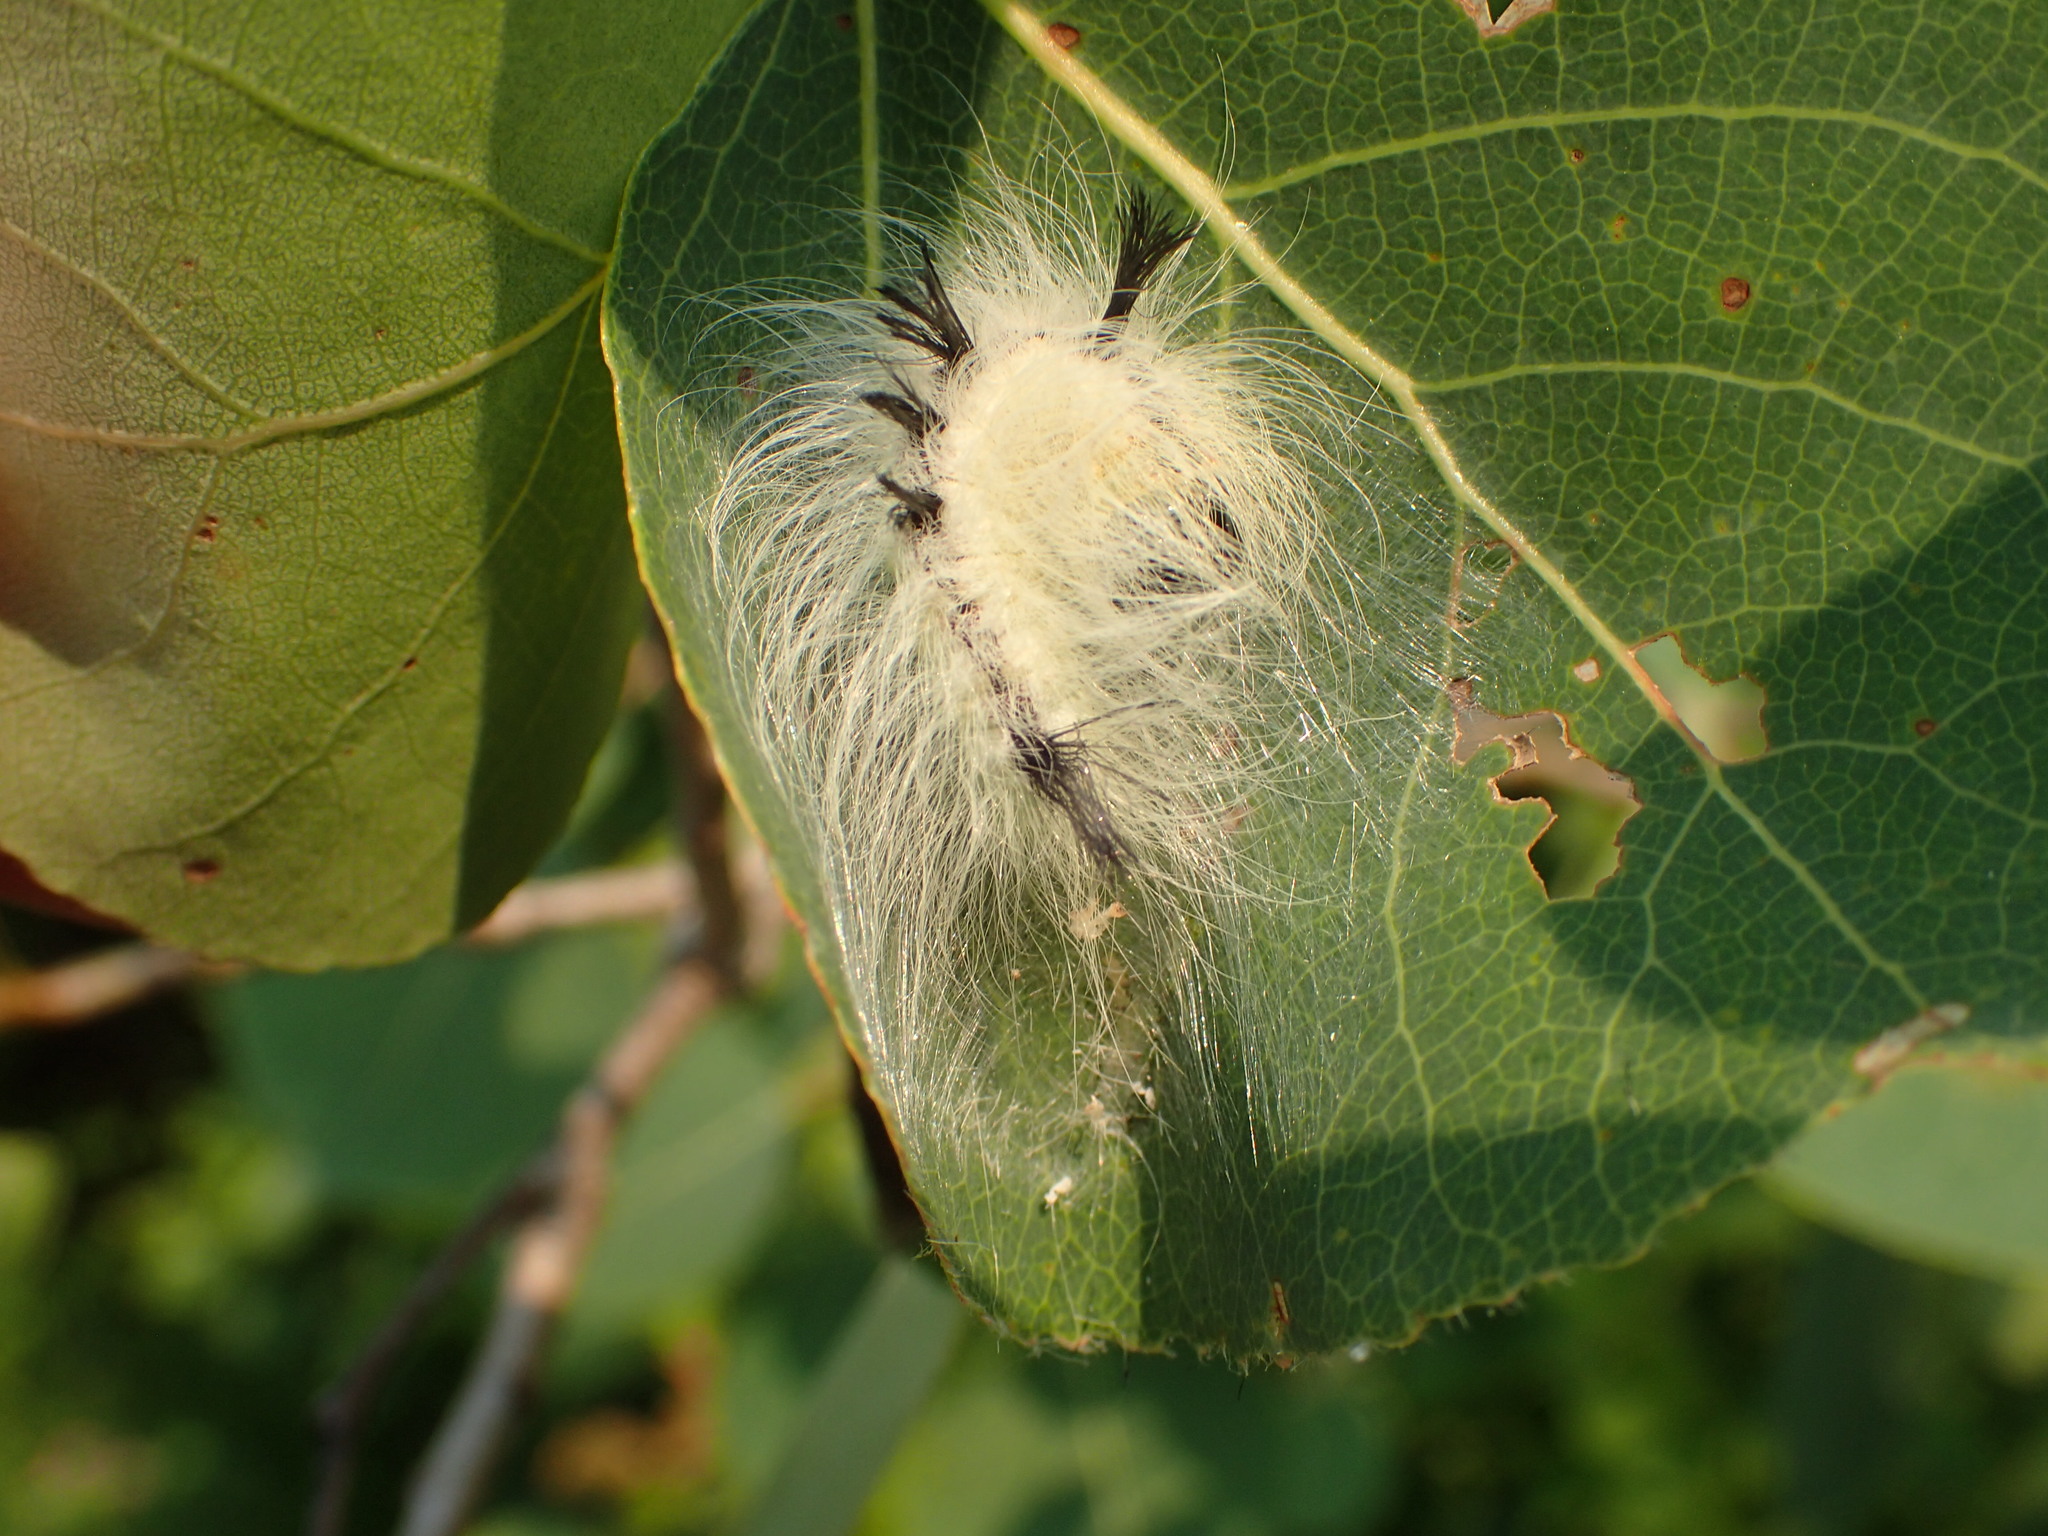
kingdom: Animalia
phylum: Arthropoda
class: Insecta
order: Lepidoptera
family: Noctuidae
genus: Acronicta
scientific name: Acronicta lepusculina
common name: Cottonwood dagger
